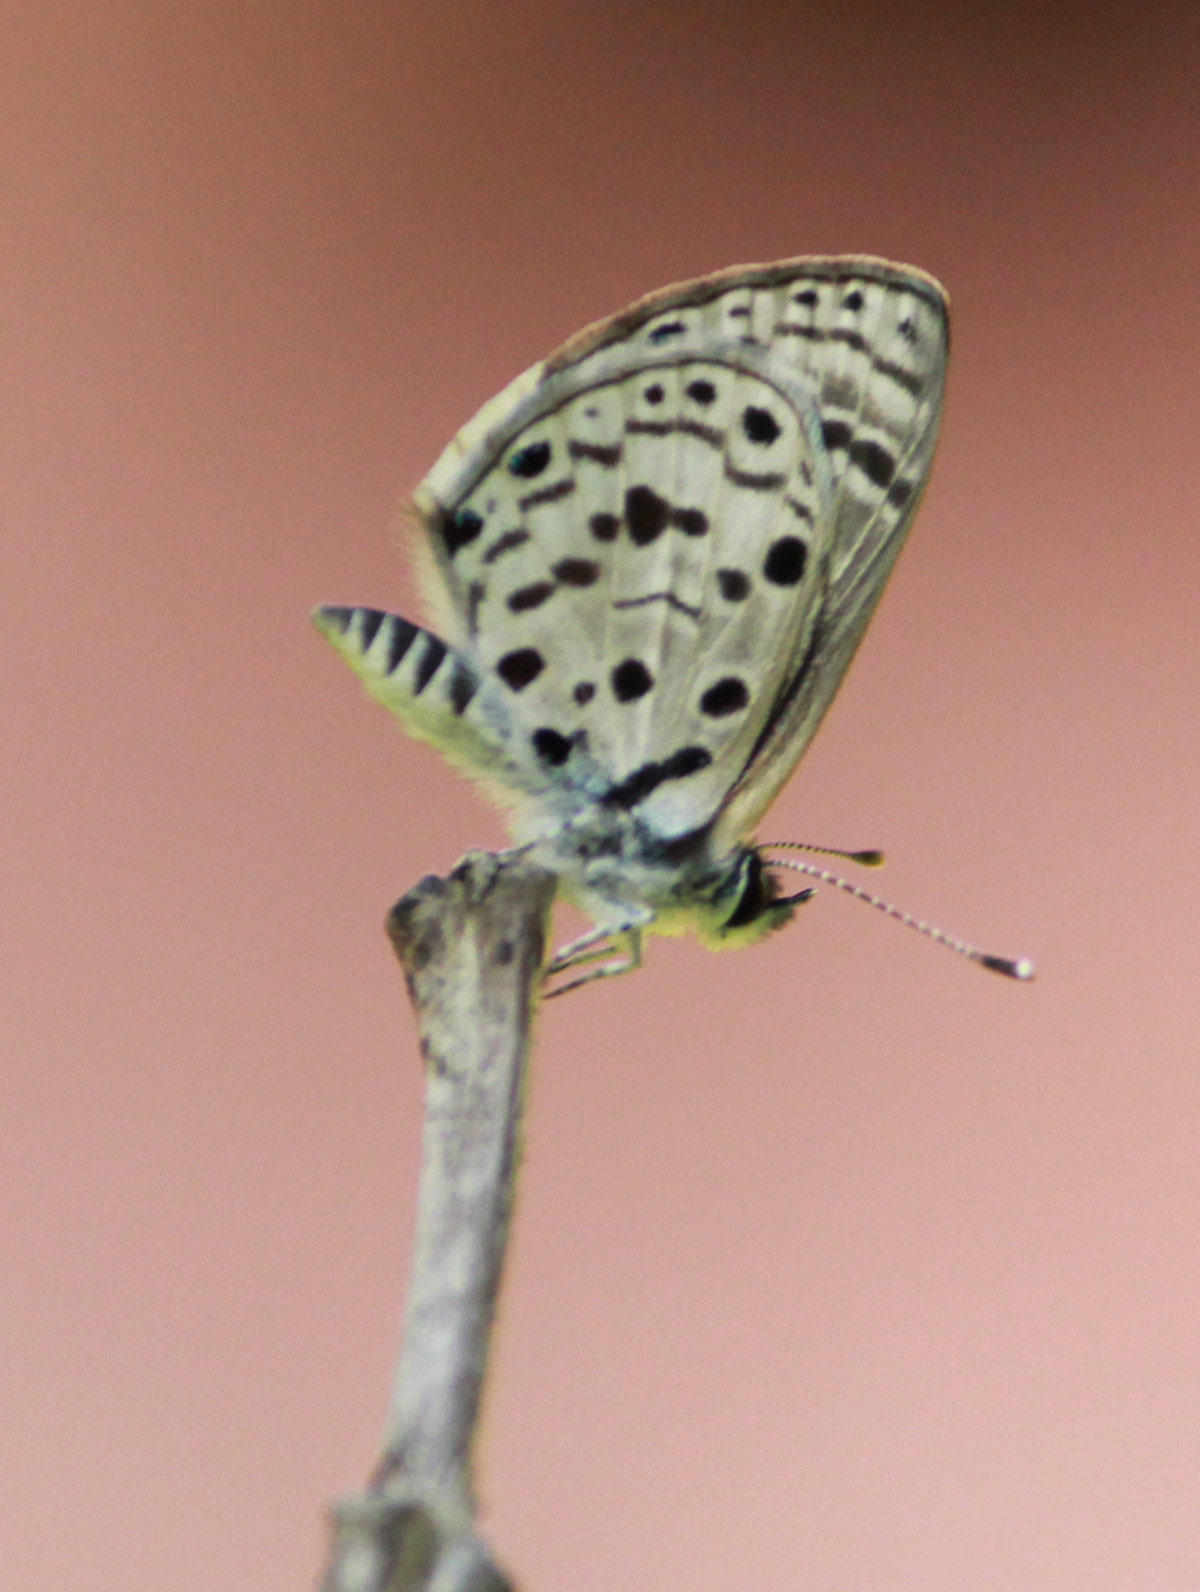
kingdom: Animalia
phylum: Arthropoda
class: Insecta
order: Lepidoptera
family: Lycaenidae
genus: Azanus
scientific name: Azanus moriqua
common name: Thorn-tree babul blue
